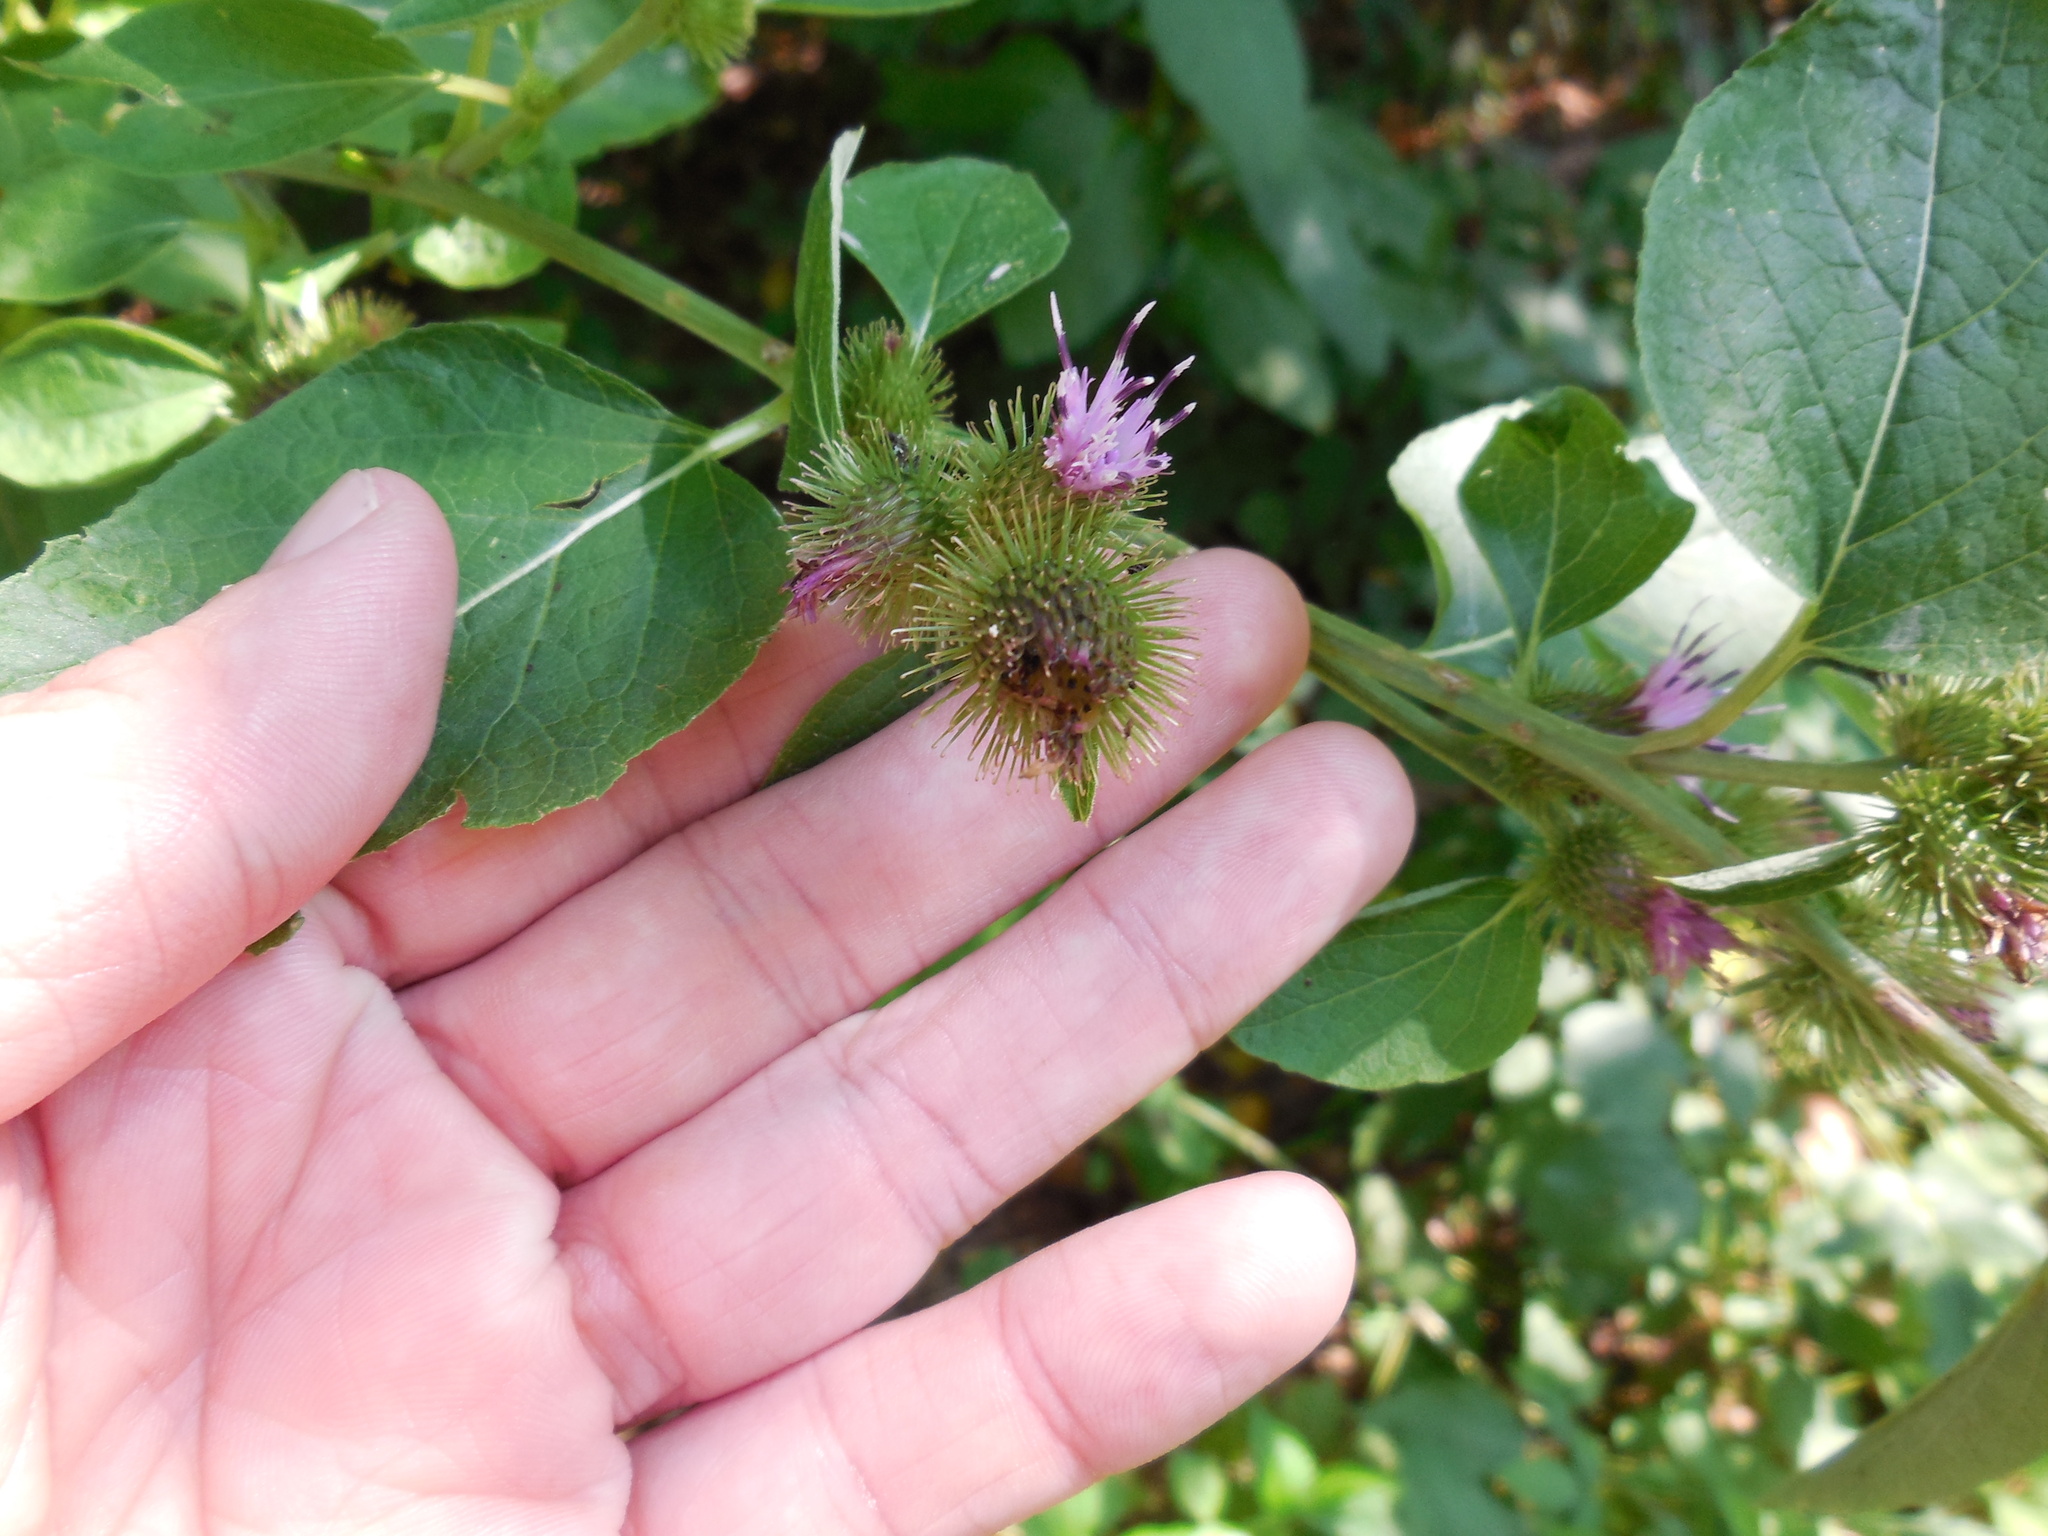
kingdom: Plantae
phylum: Tracheophyta
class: Magnoliopsida
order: Asterales
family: Asteraceae
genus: Arctium
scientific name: Arctium minus
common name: Lesser burdock
